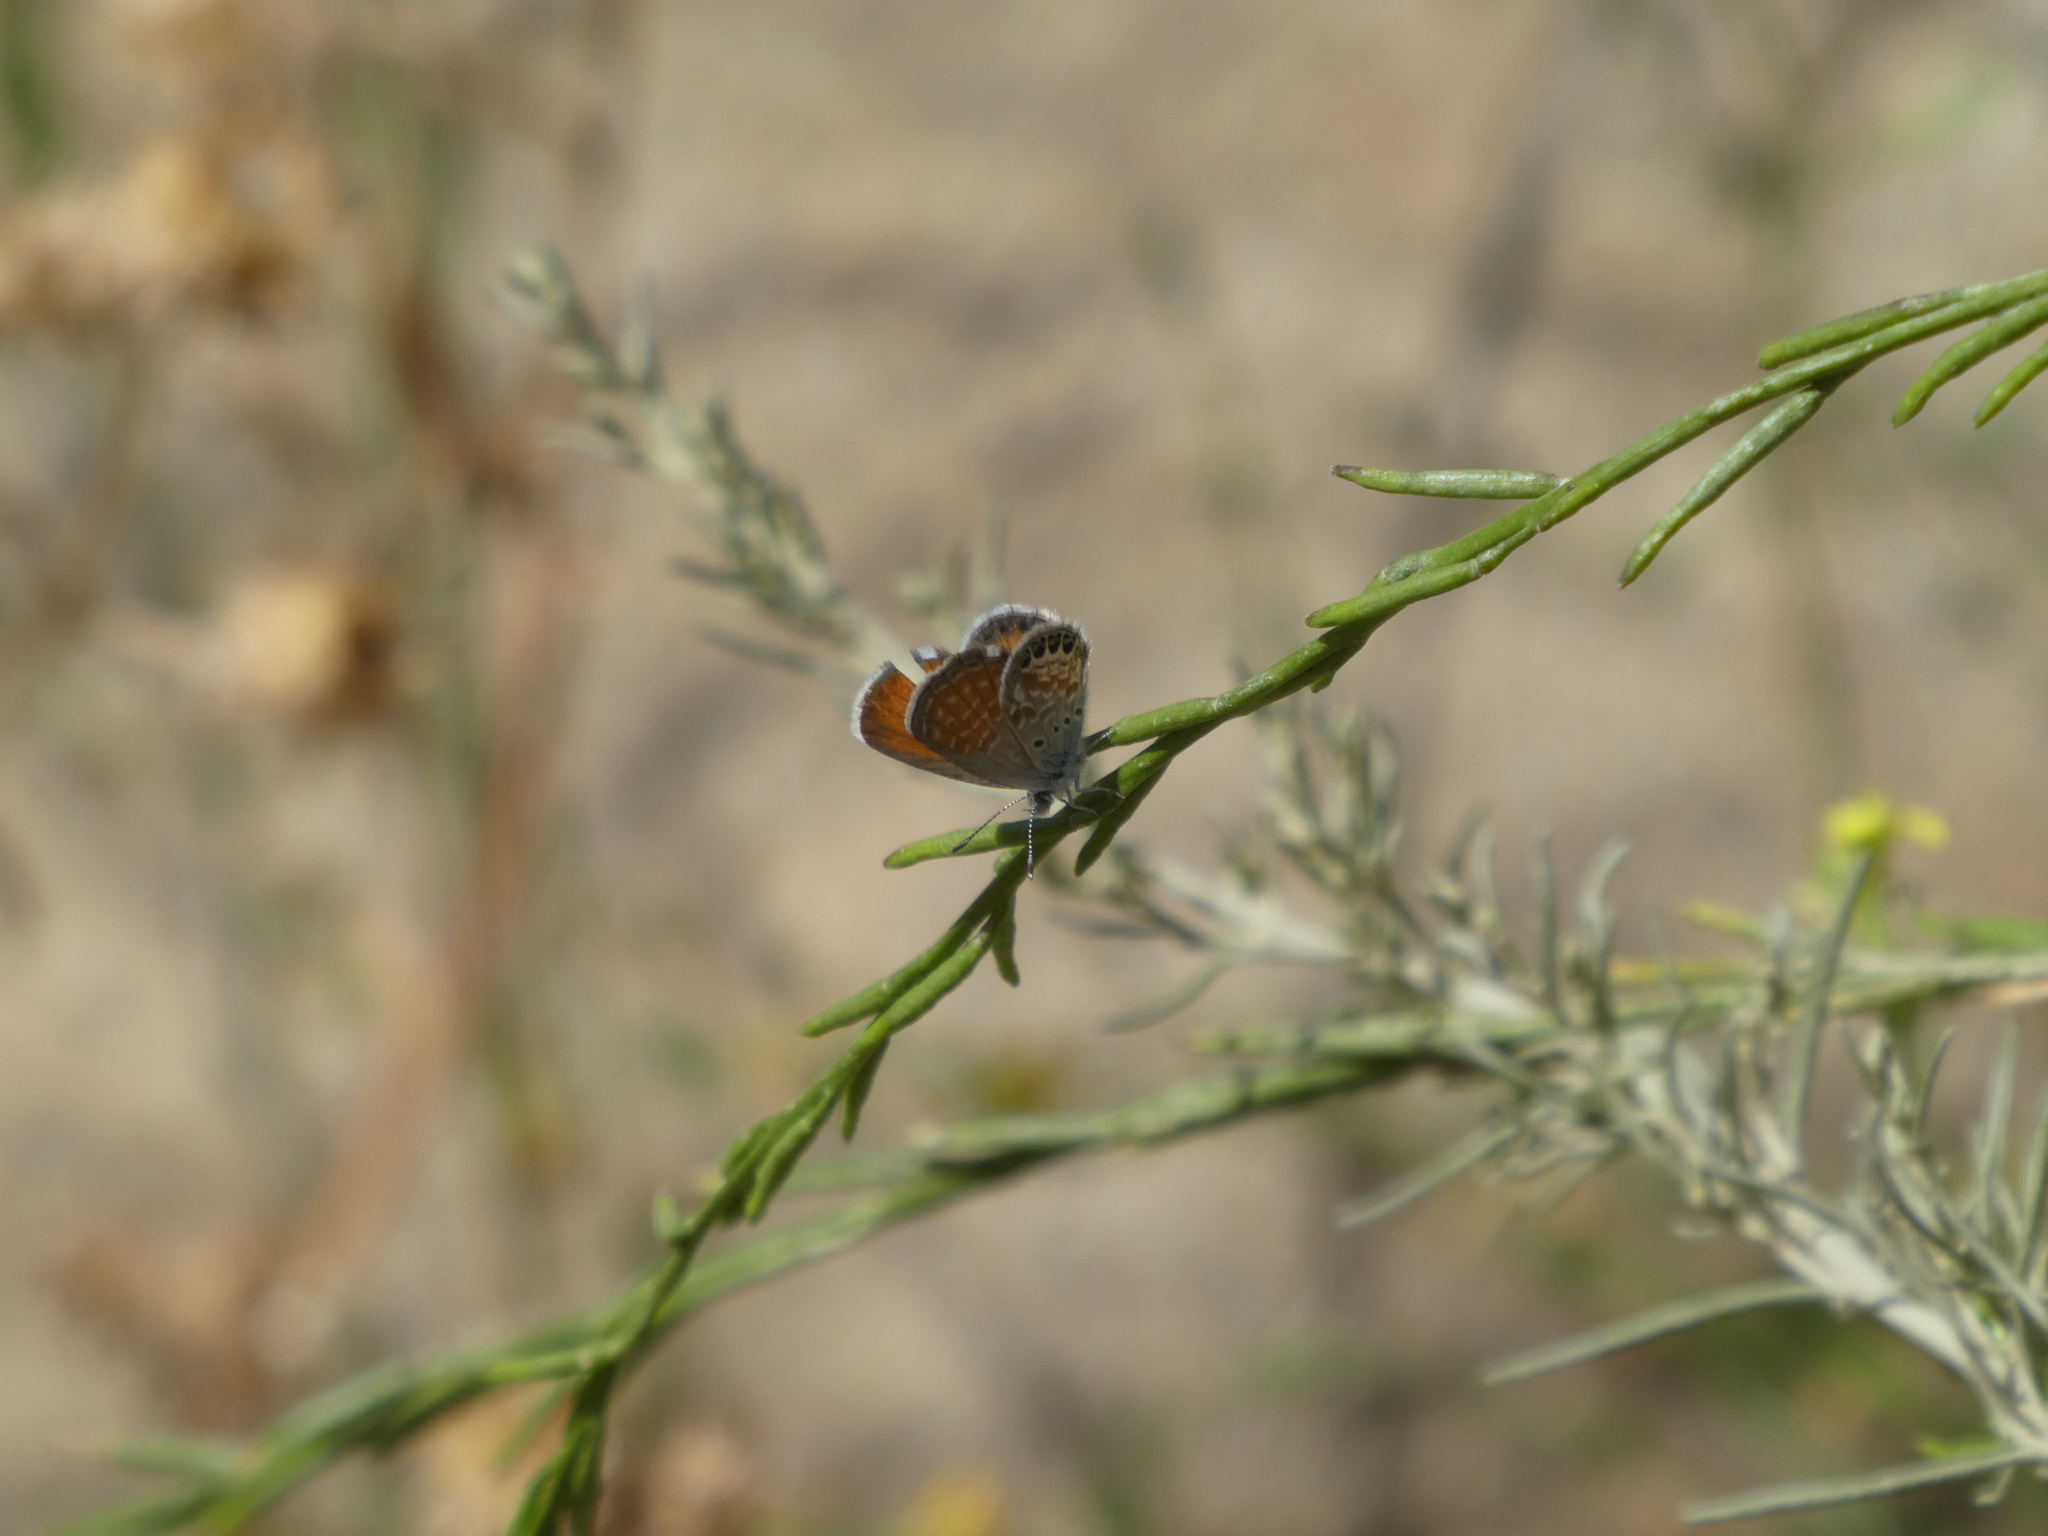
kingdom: Animalia
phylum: Arthropoda
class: Insecta
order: Lepidoptera
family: Lycaenidae
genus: Brephidium
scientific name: Brephidium exilis
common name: Pygmy blue
